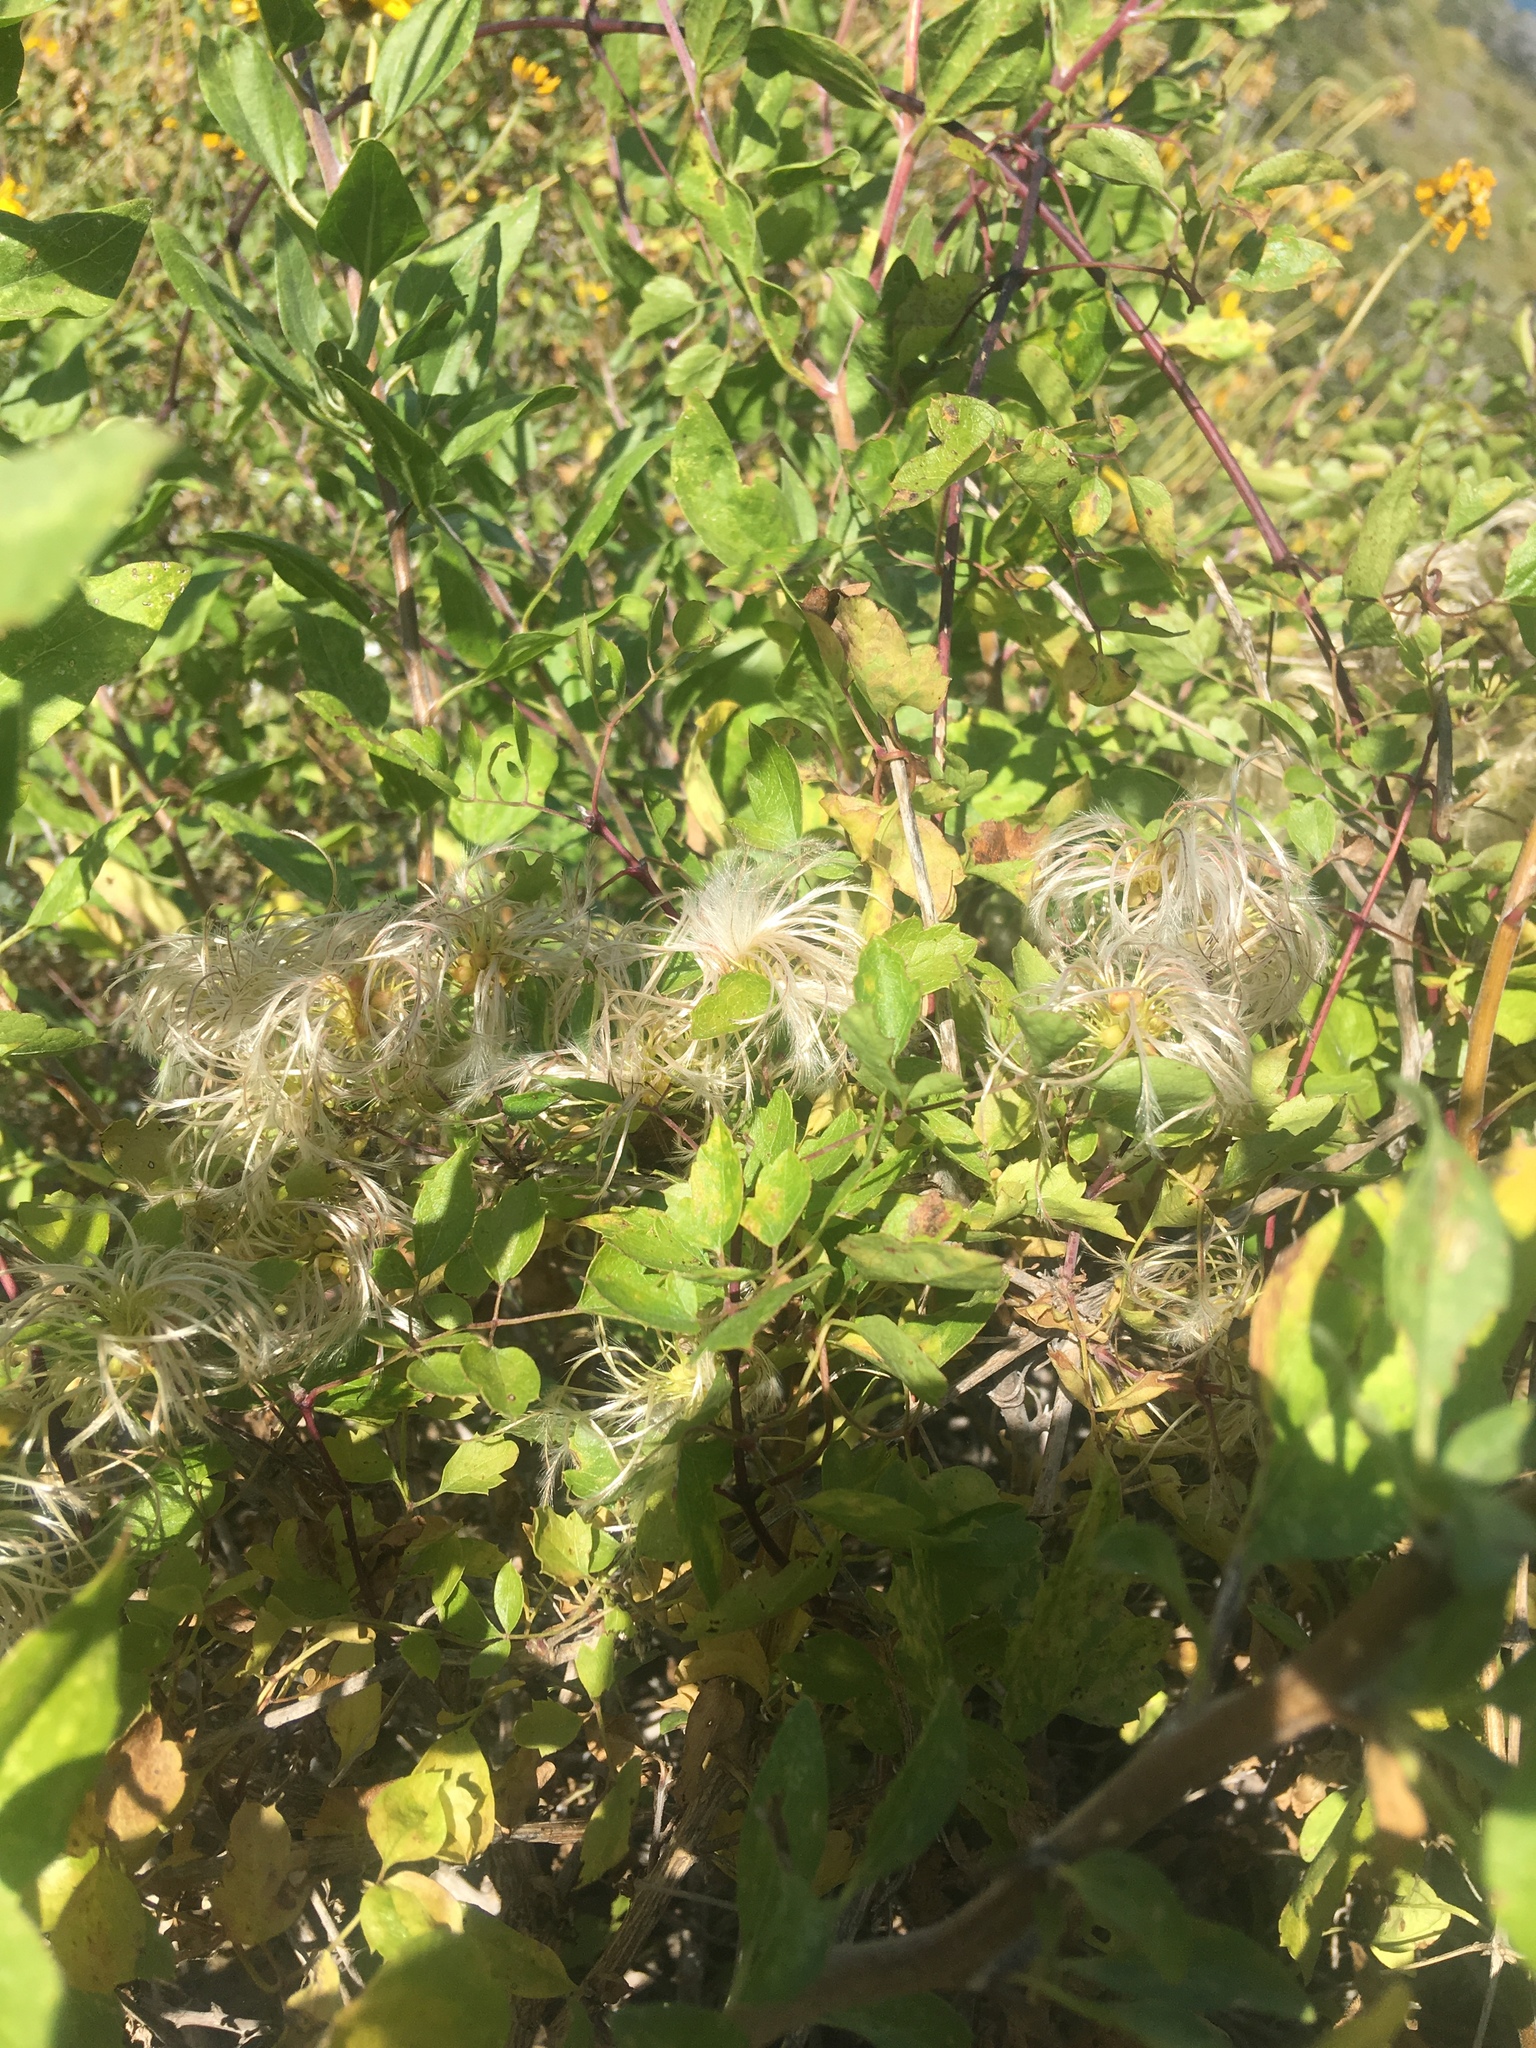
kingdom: Plantae
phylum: Tracheophyta
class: Magnoliopsida
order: Ranunculales
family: Ranunculaceae
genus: Clematis
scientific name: Clematis pauciflora
